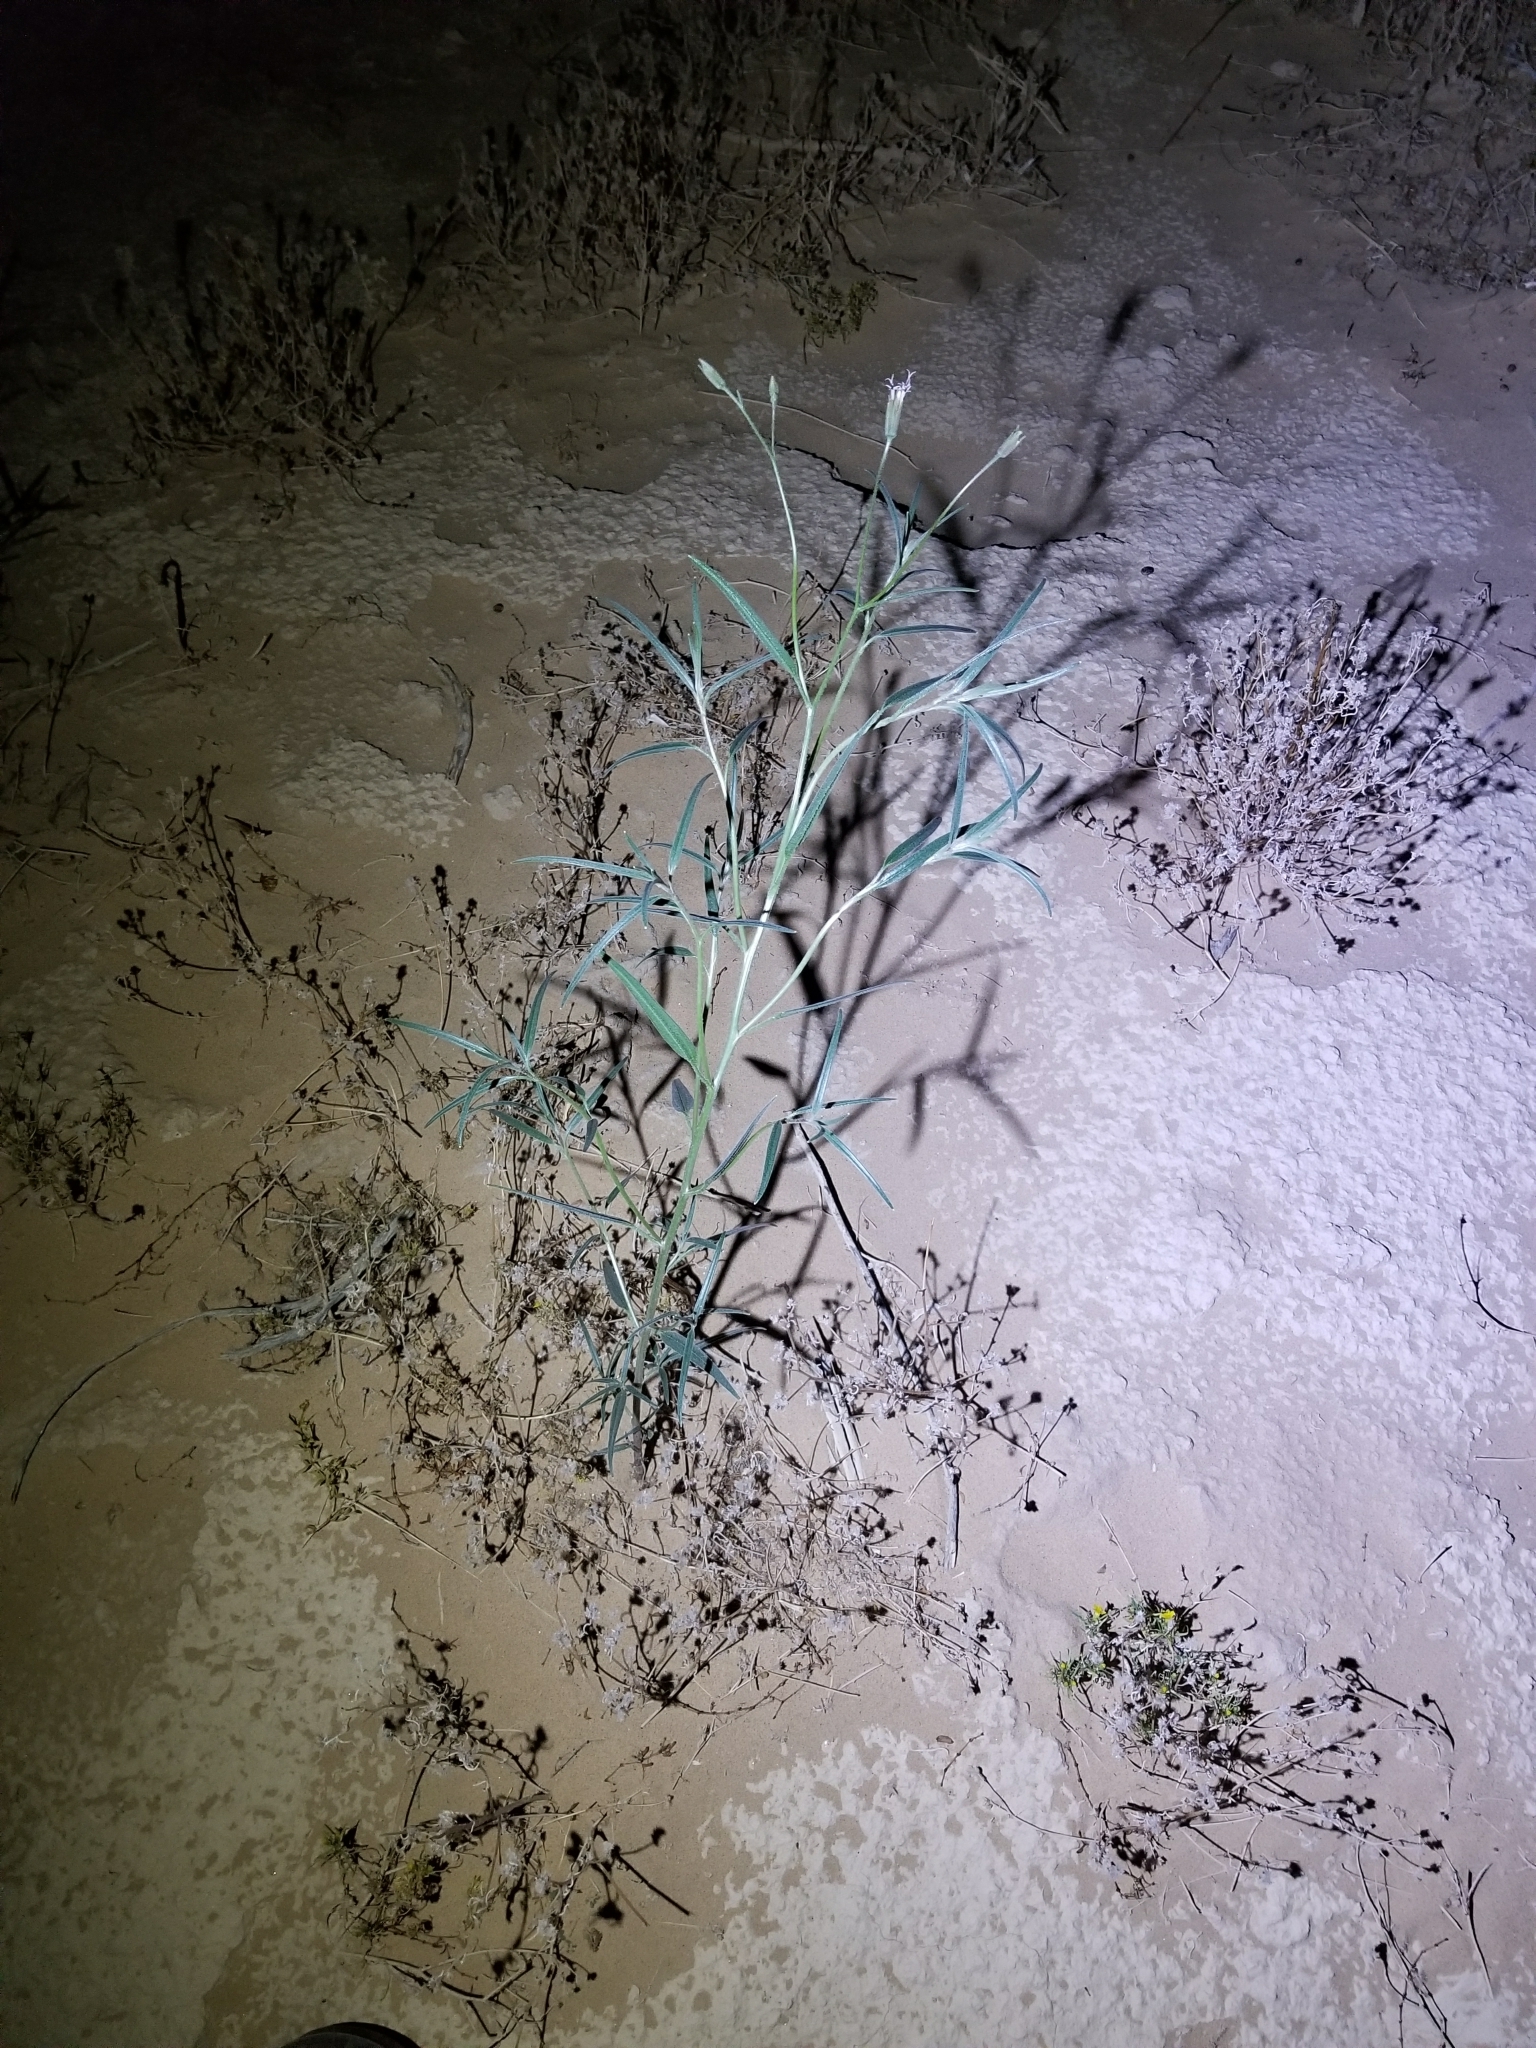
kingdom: Plantae
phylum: Tracheophyta
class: Magnoliopsida
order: Asterales
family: Asteraceae
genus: Palafoxia
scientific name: Palafoxia arida
